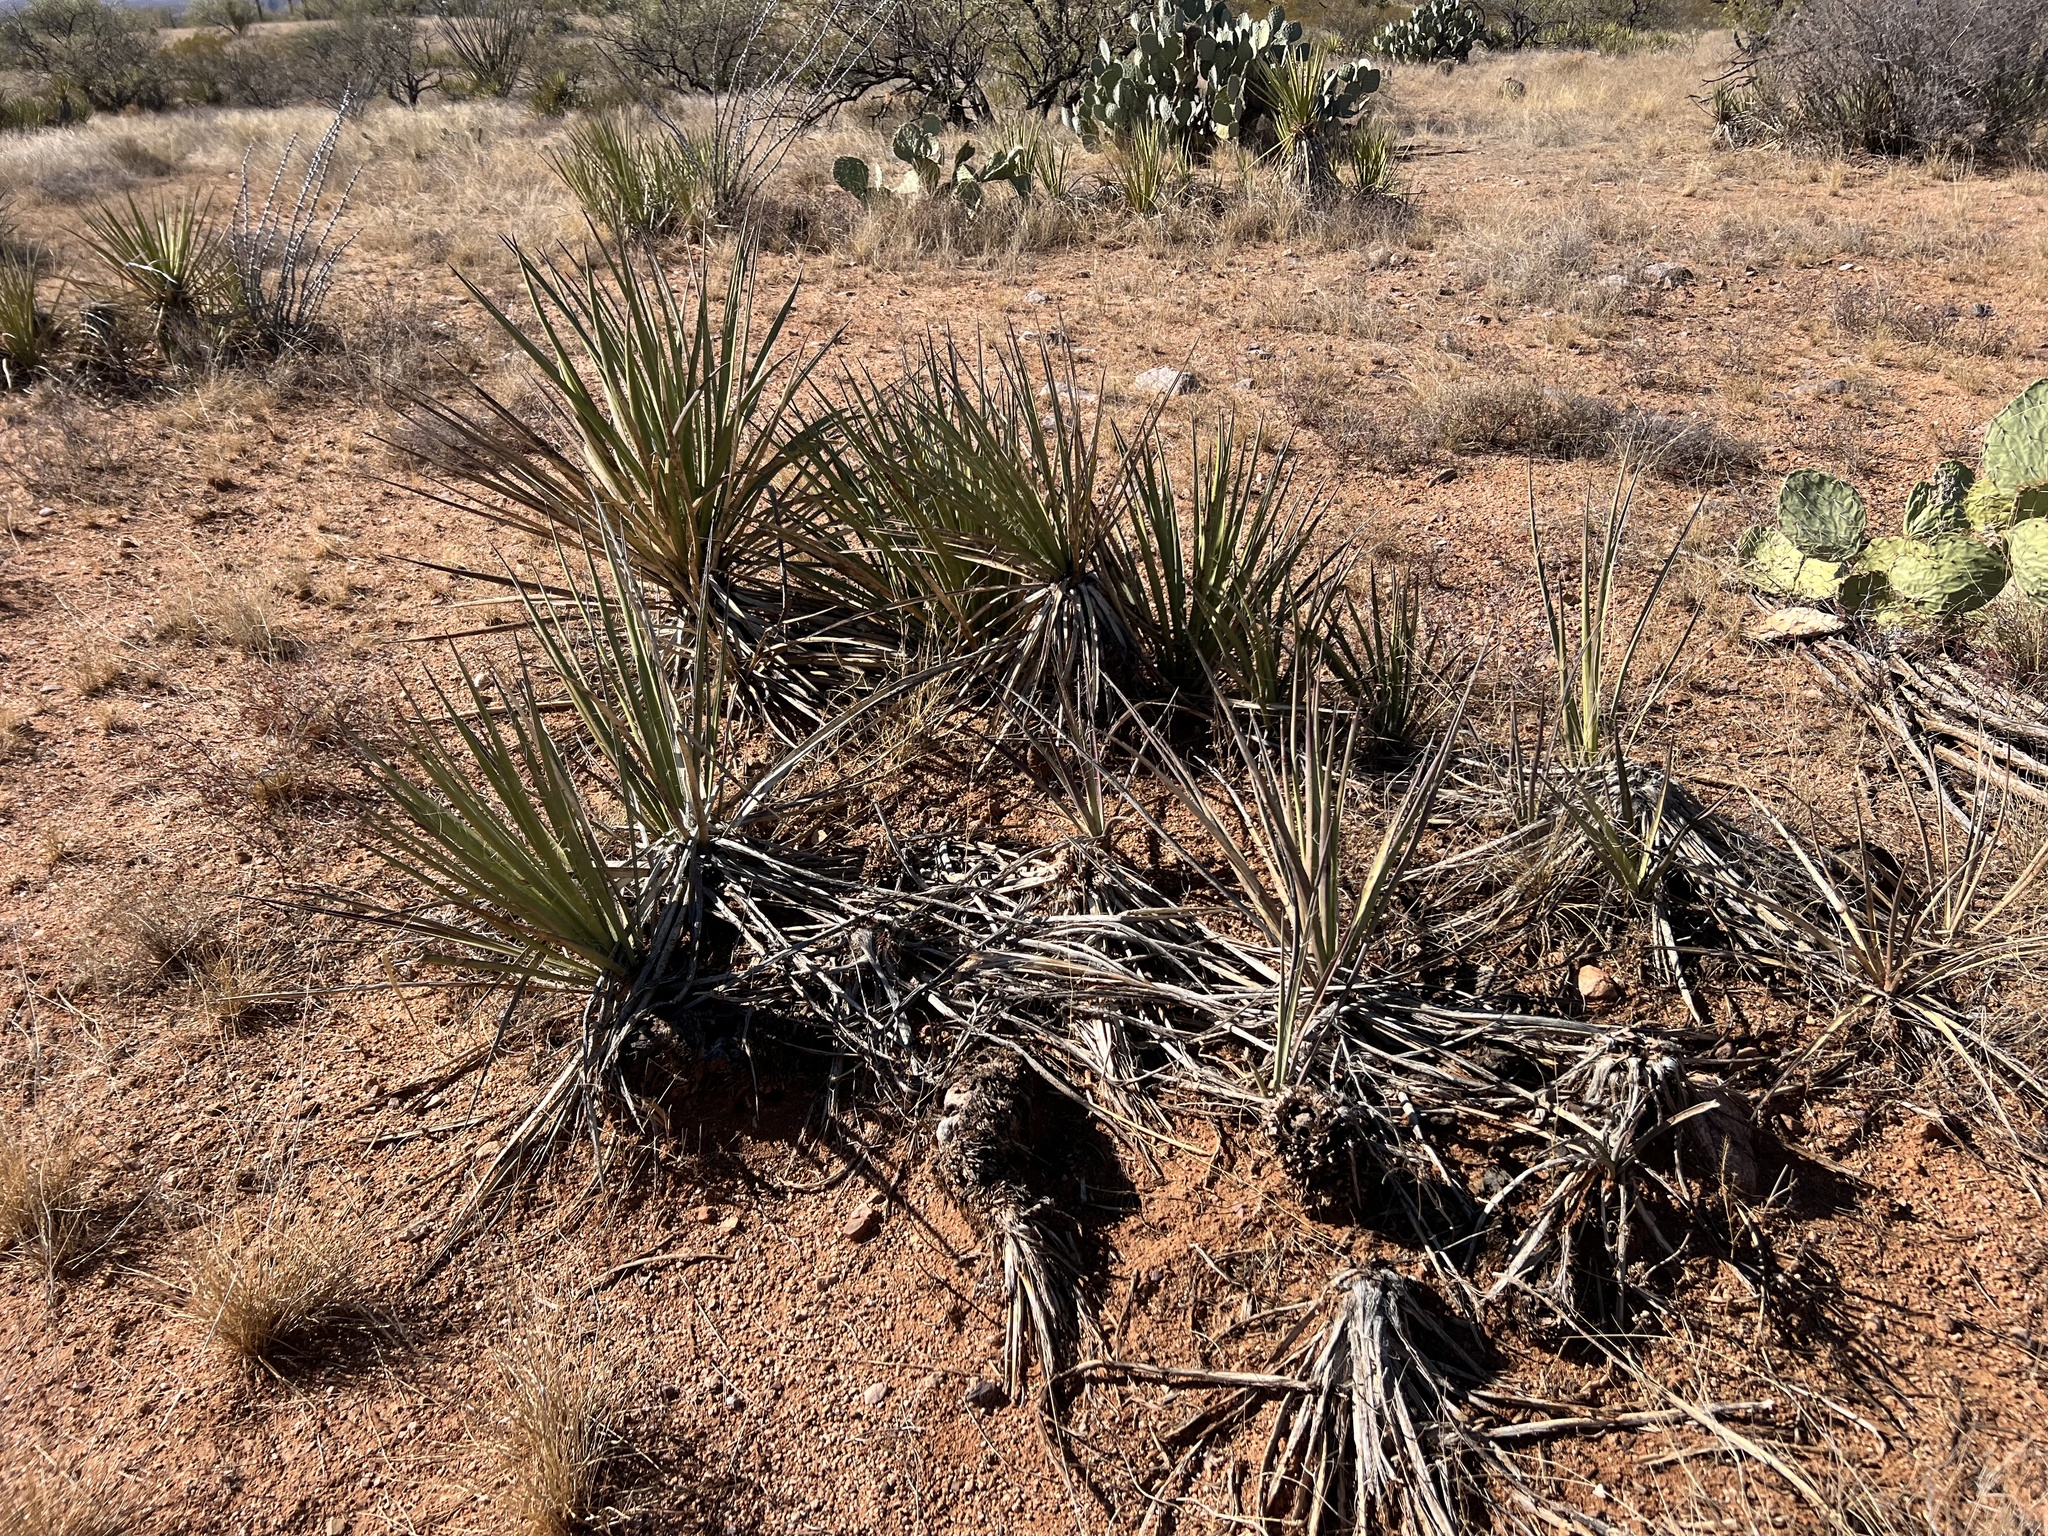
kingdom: Plantae
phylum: Tracheophyta
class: Liliopsida
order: Asparagales
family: Asparagaceae
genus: Yucca
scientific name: Yucca baccata
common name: Banana yucca
